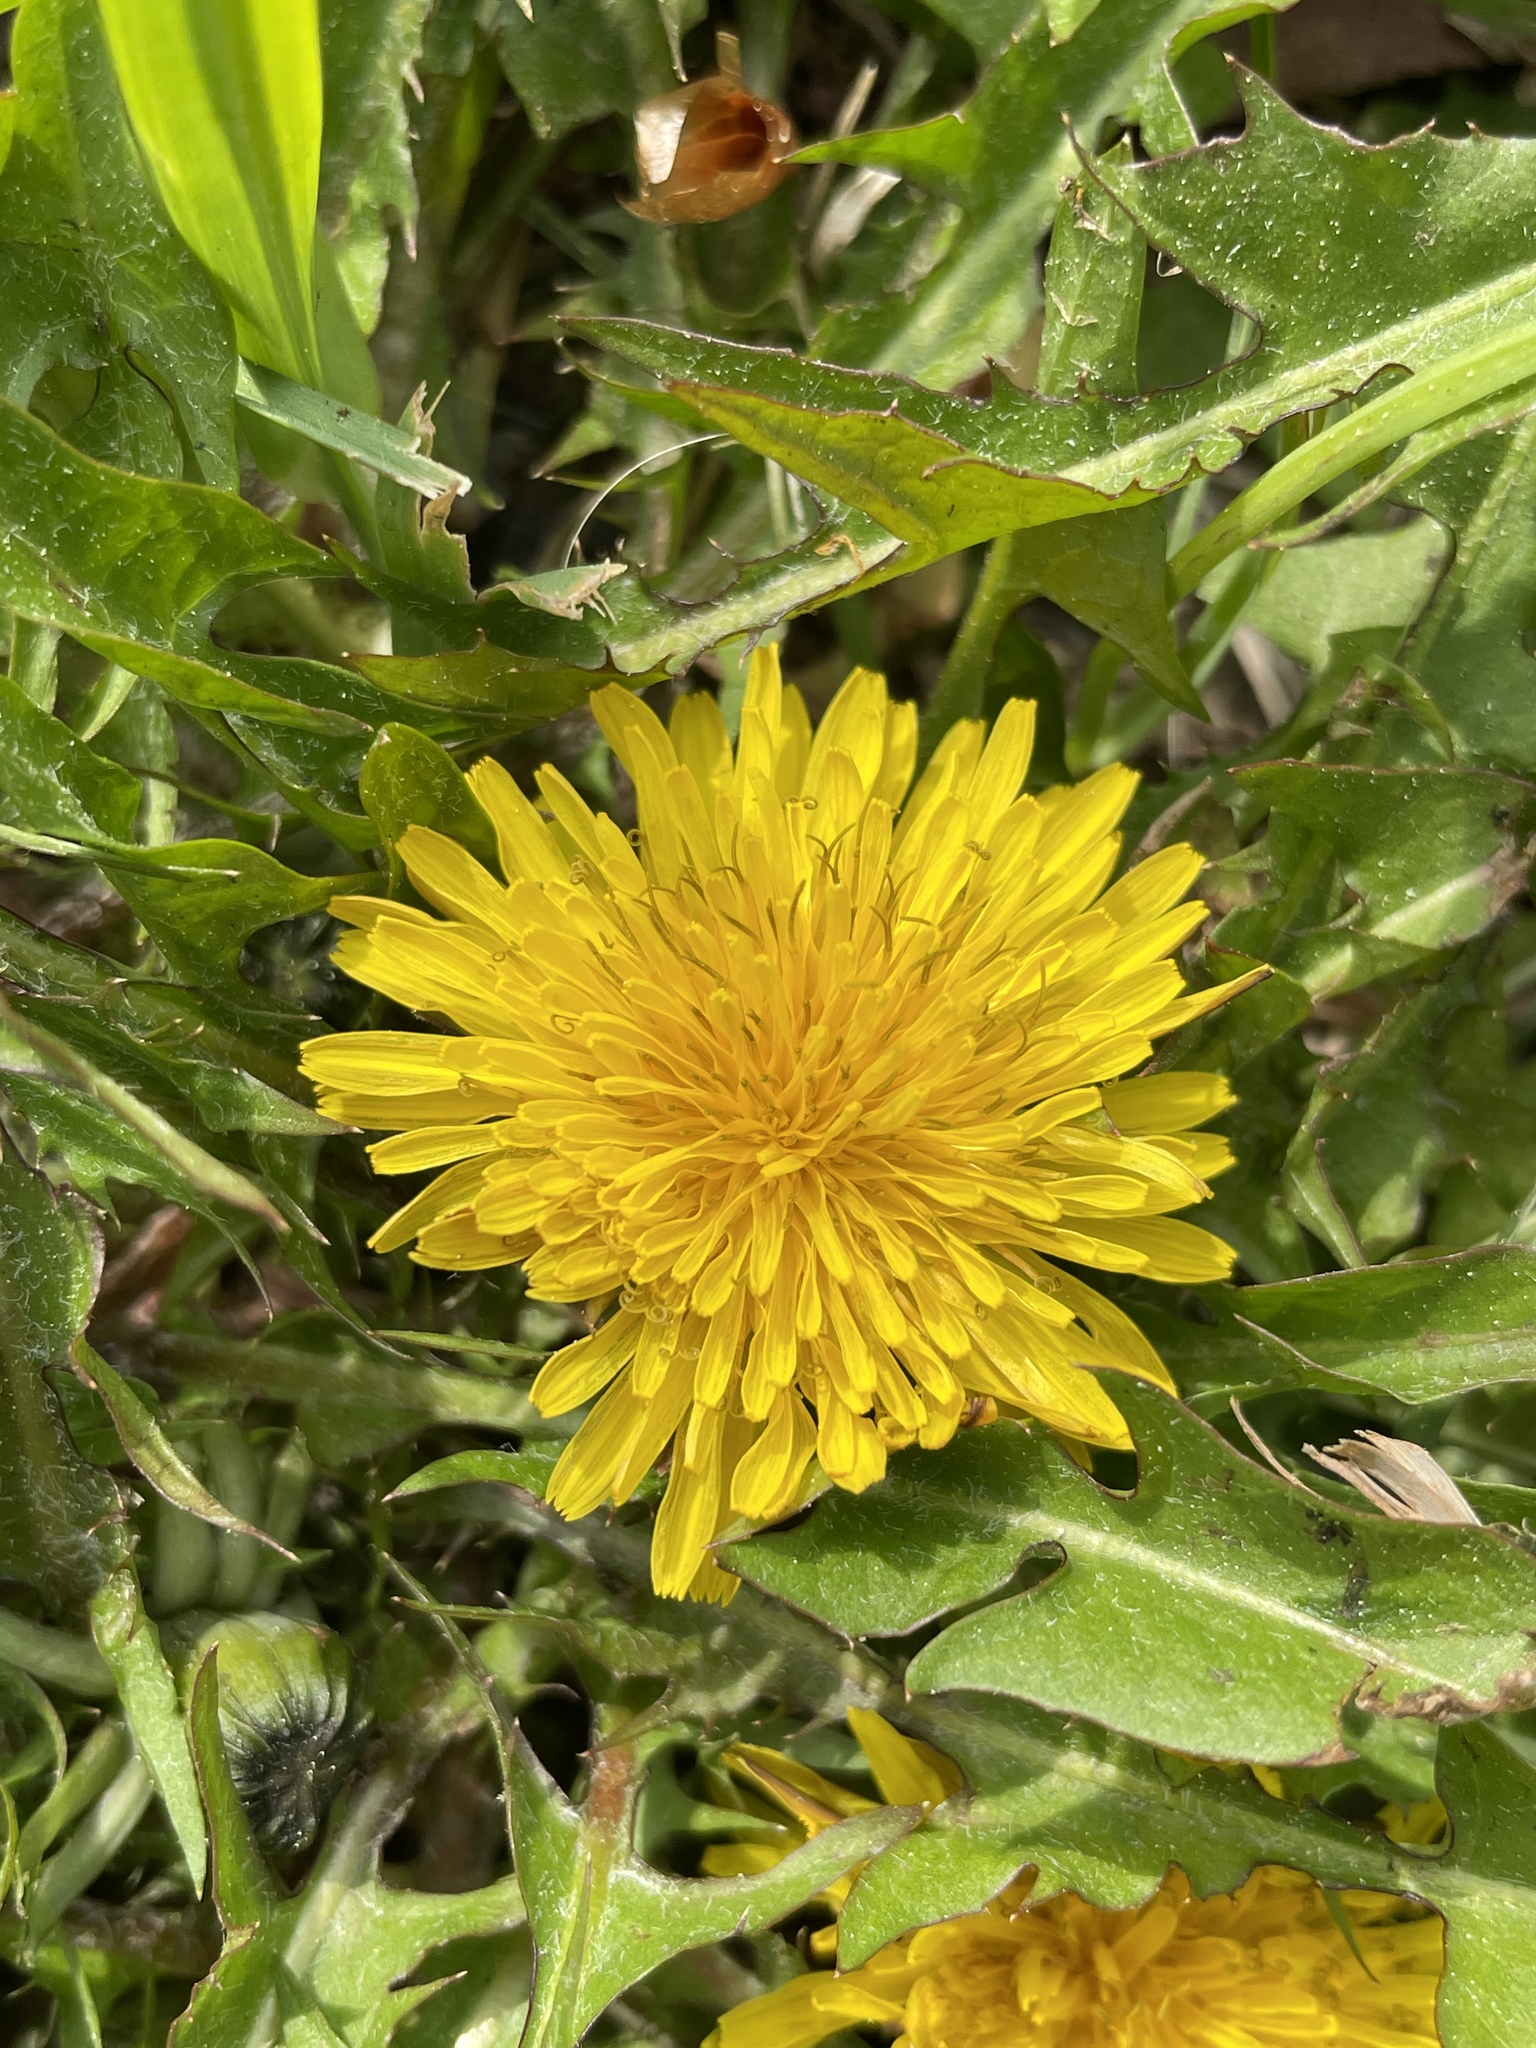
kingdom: Plantae
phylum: Tracheophyta
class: Magnoliopsida
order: Asterales
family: Asteraceae
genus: Taraxacum
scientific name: Taraxacum officinale
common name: Common dandelion
